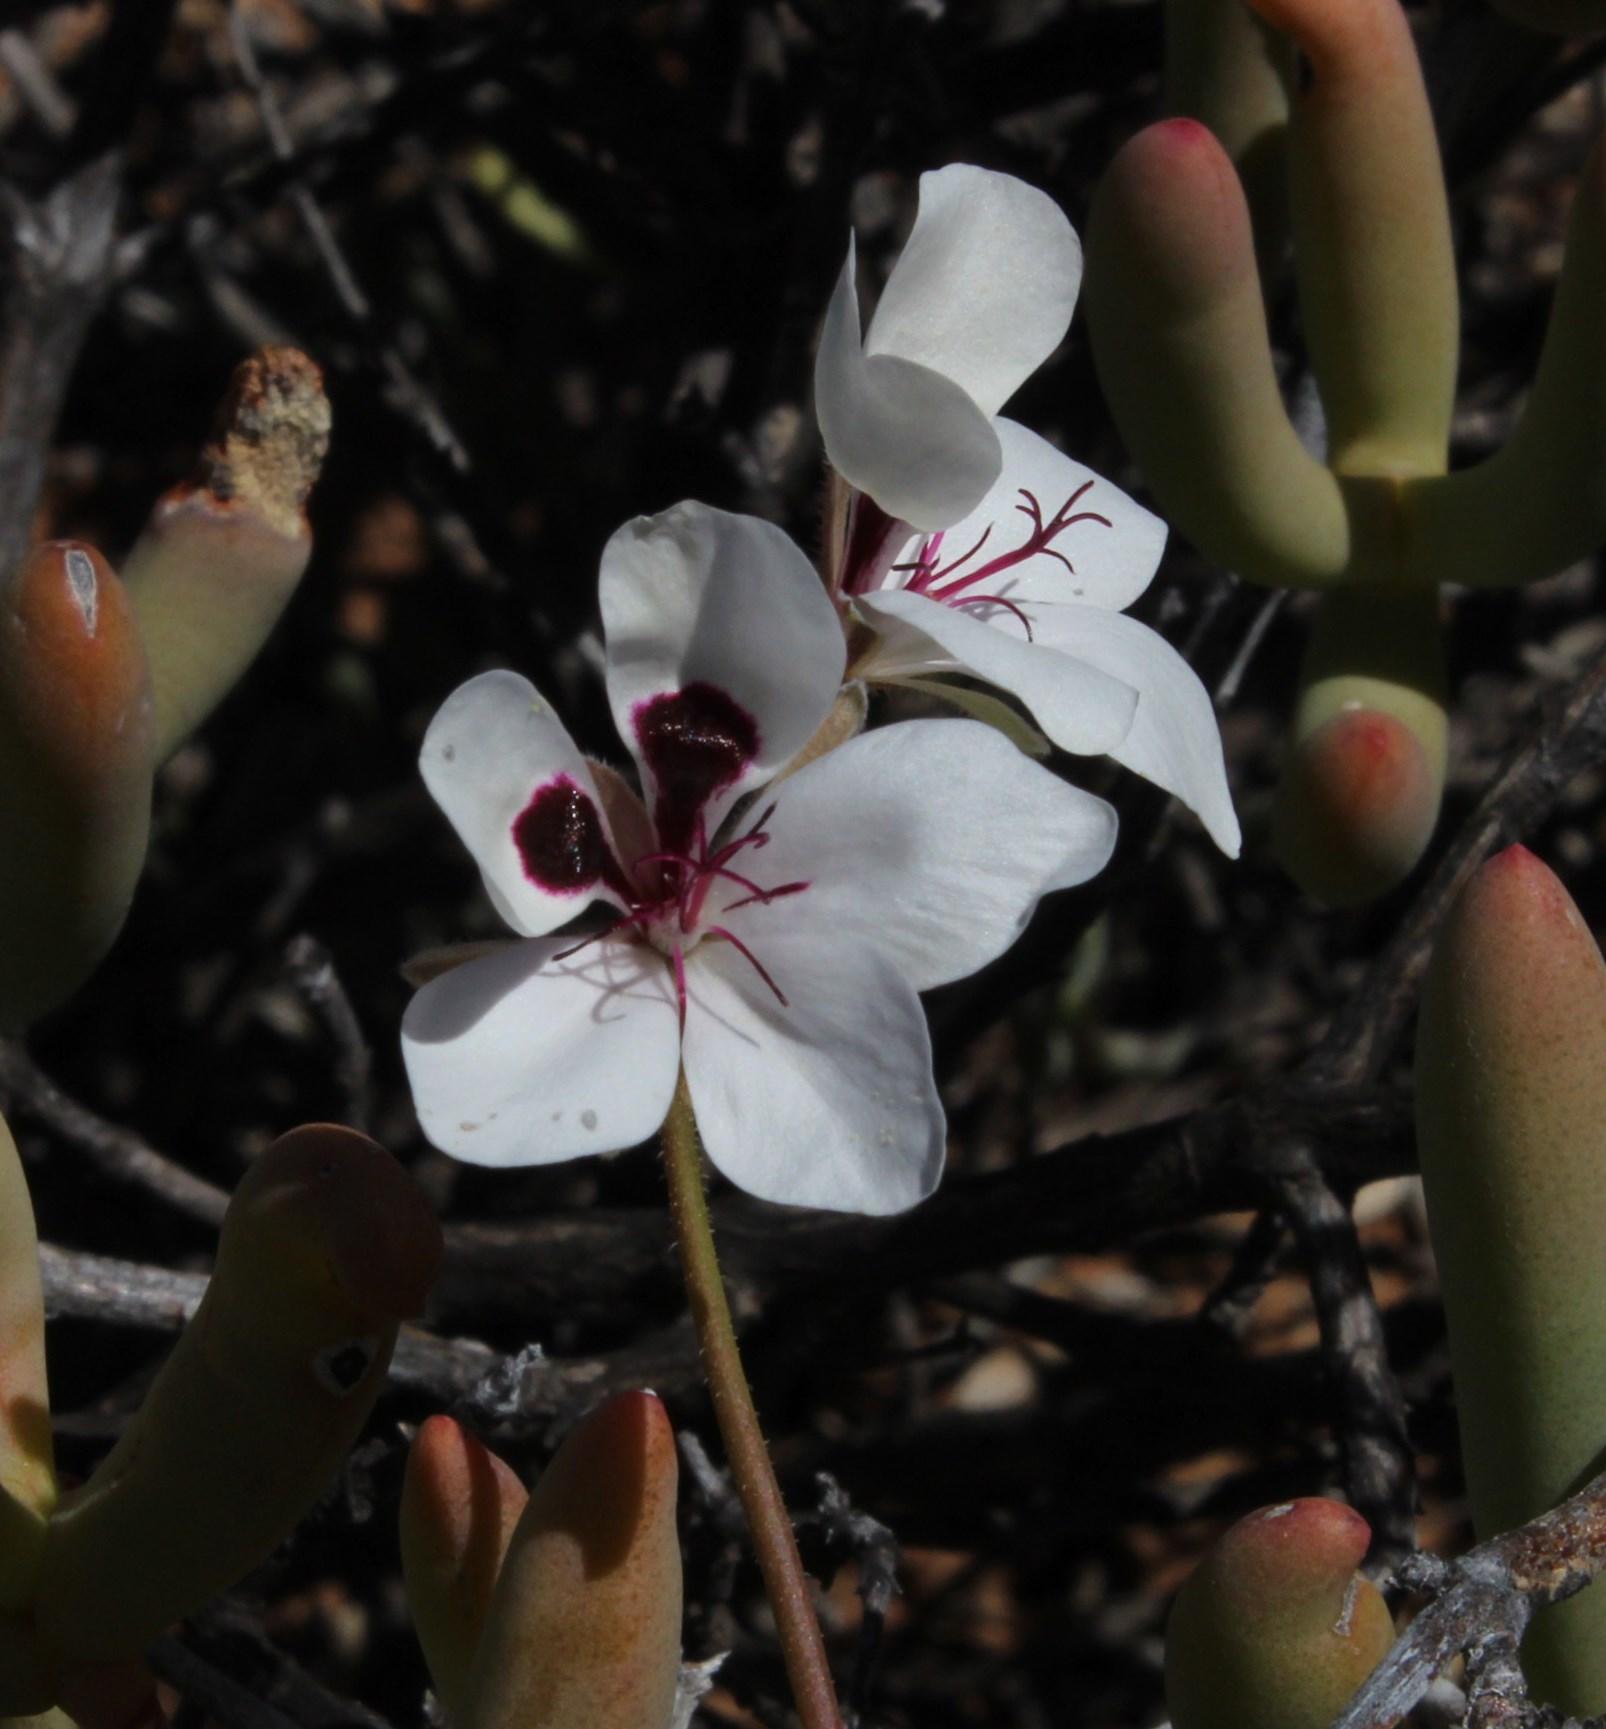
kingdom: Plantae
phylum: Tracheophyta
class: Magnoliopsida
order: Geraniales
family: Geraniaceae
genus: Pelargonium
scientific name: Pelargonium tenuicaule
